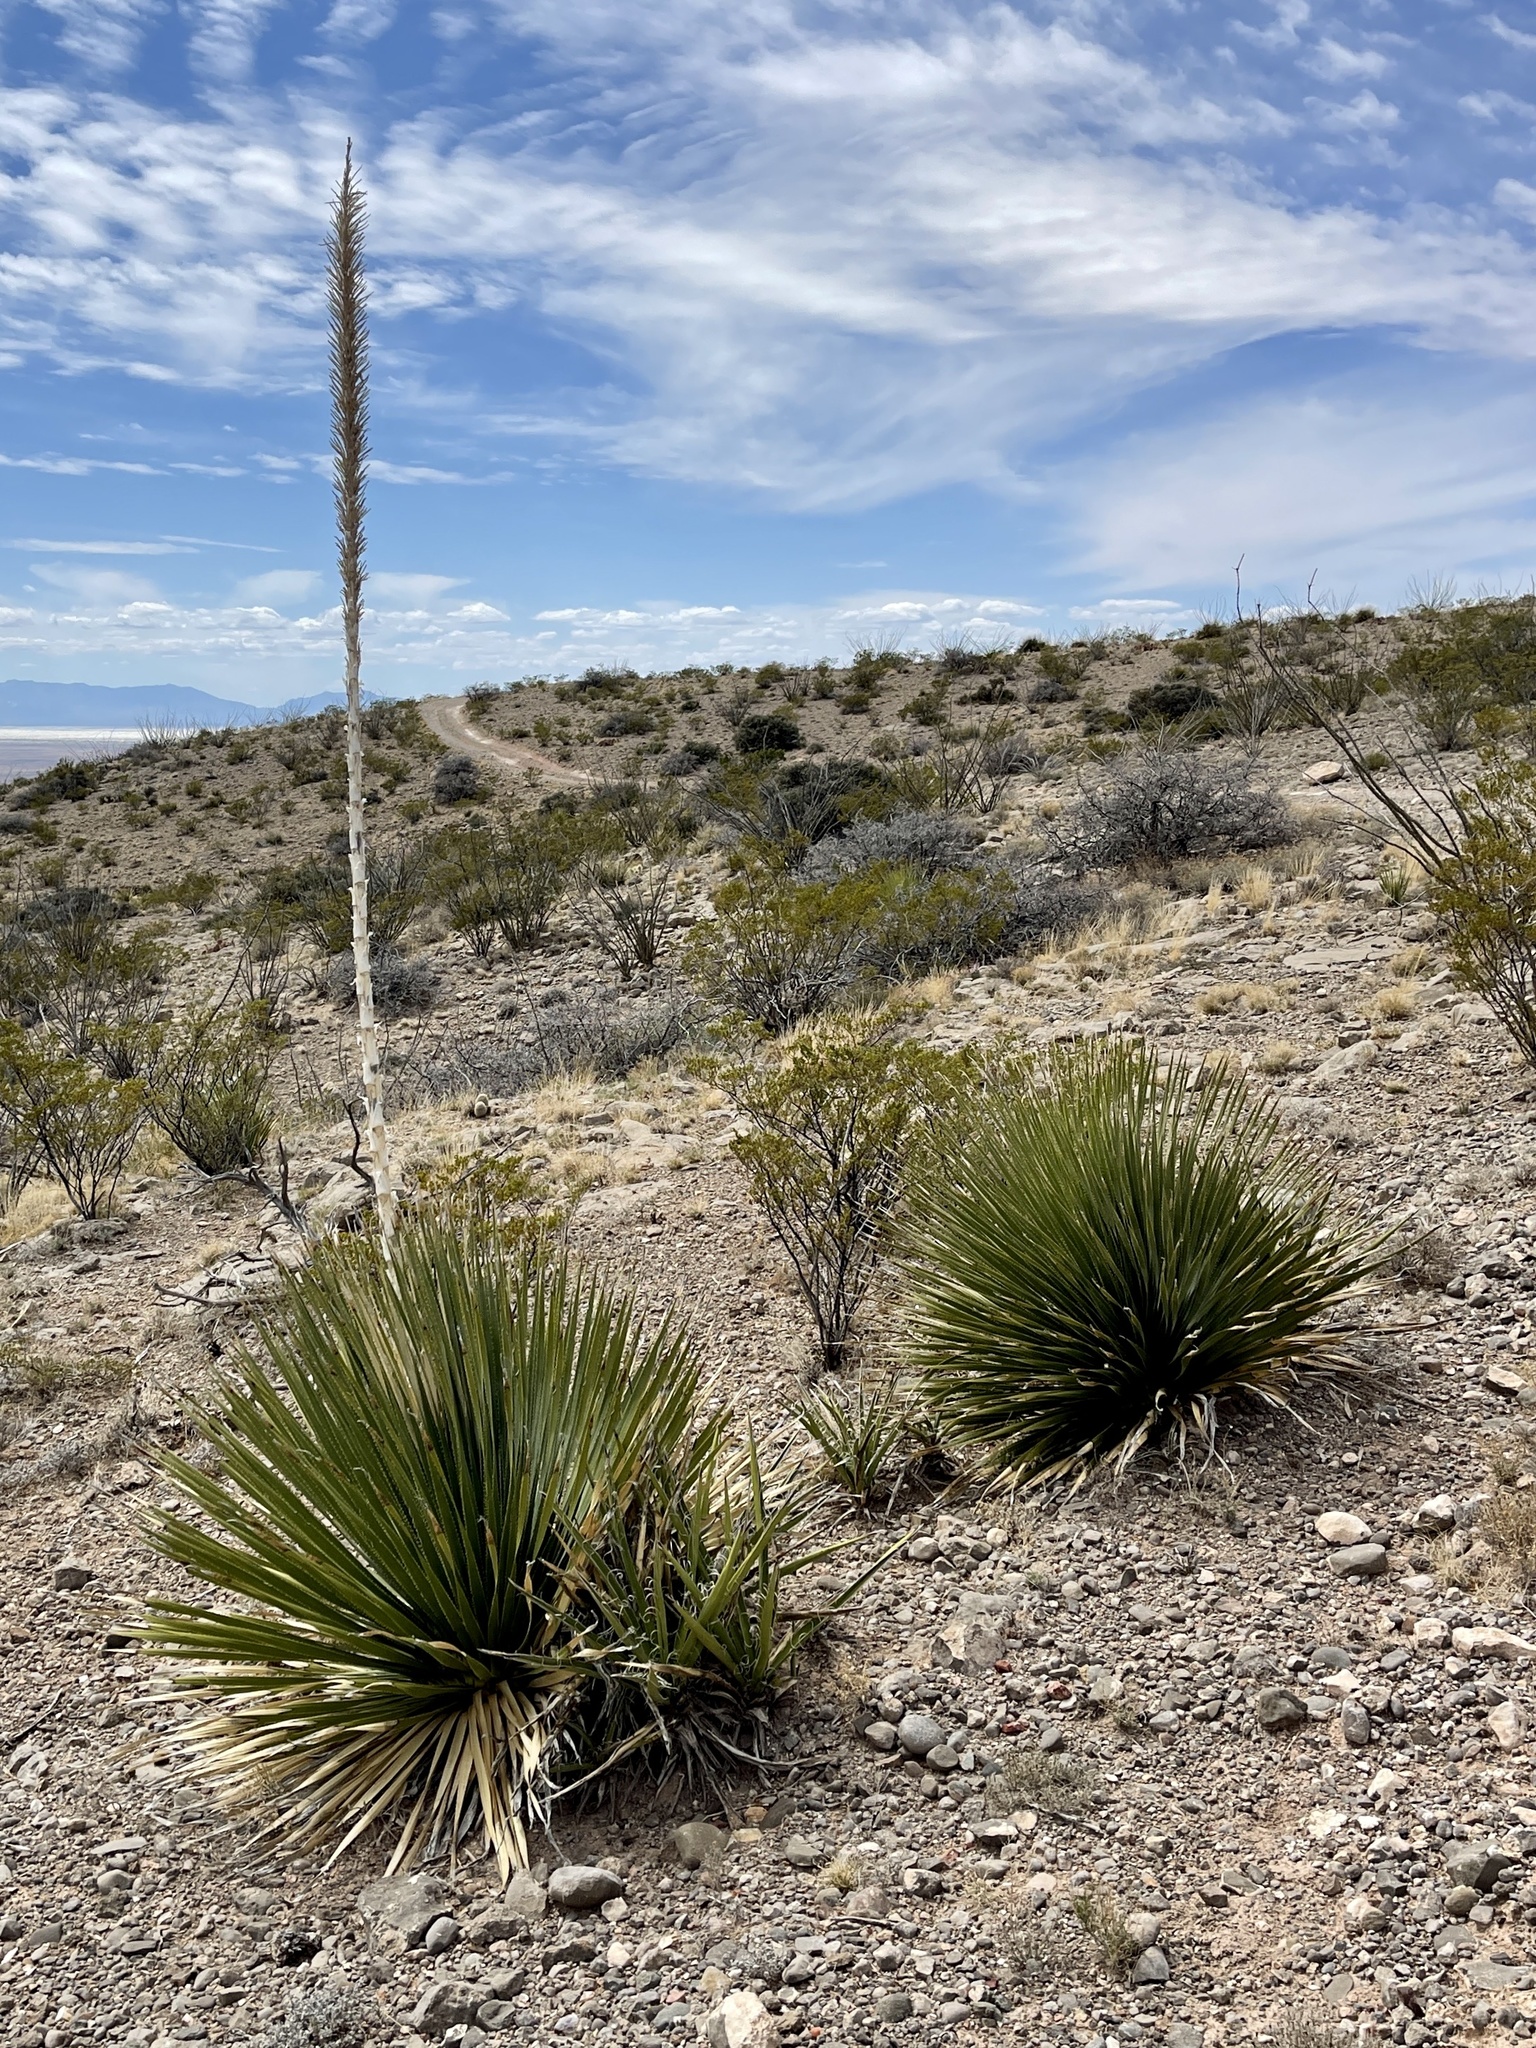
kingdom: Plantae
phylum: Tracheophyta
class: Liliopsida
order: Asparagales
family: Asparagaceae
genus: Dasylirion
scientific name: Dasylirion wheeleri
